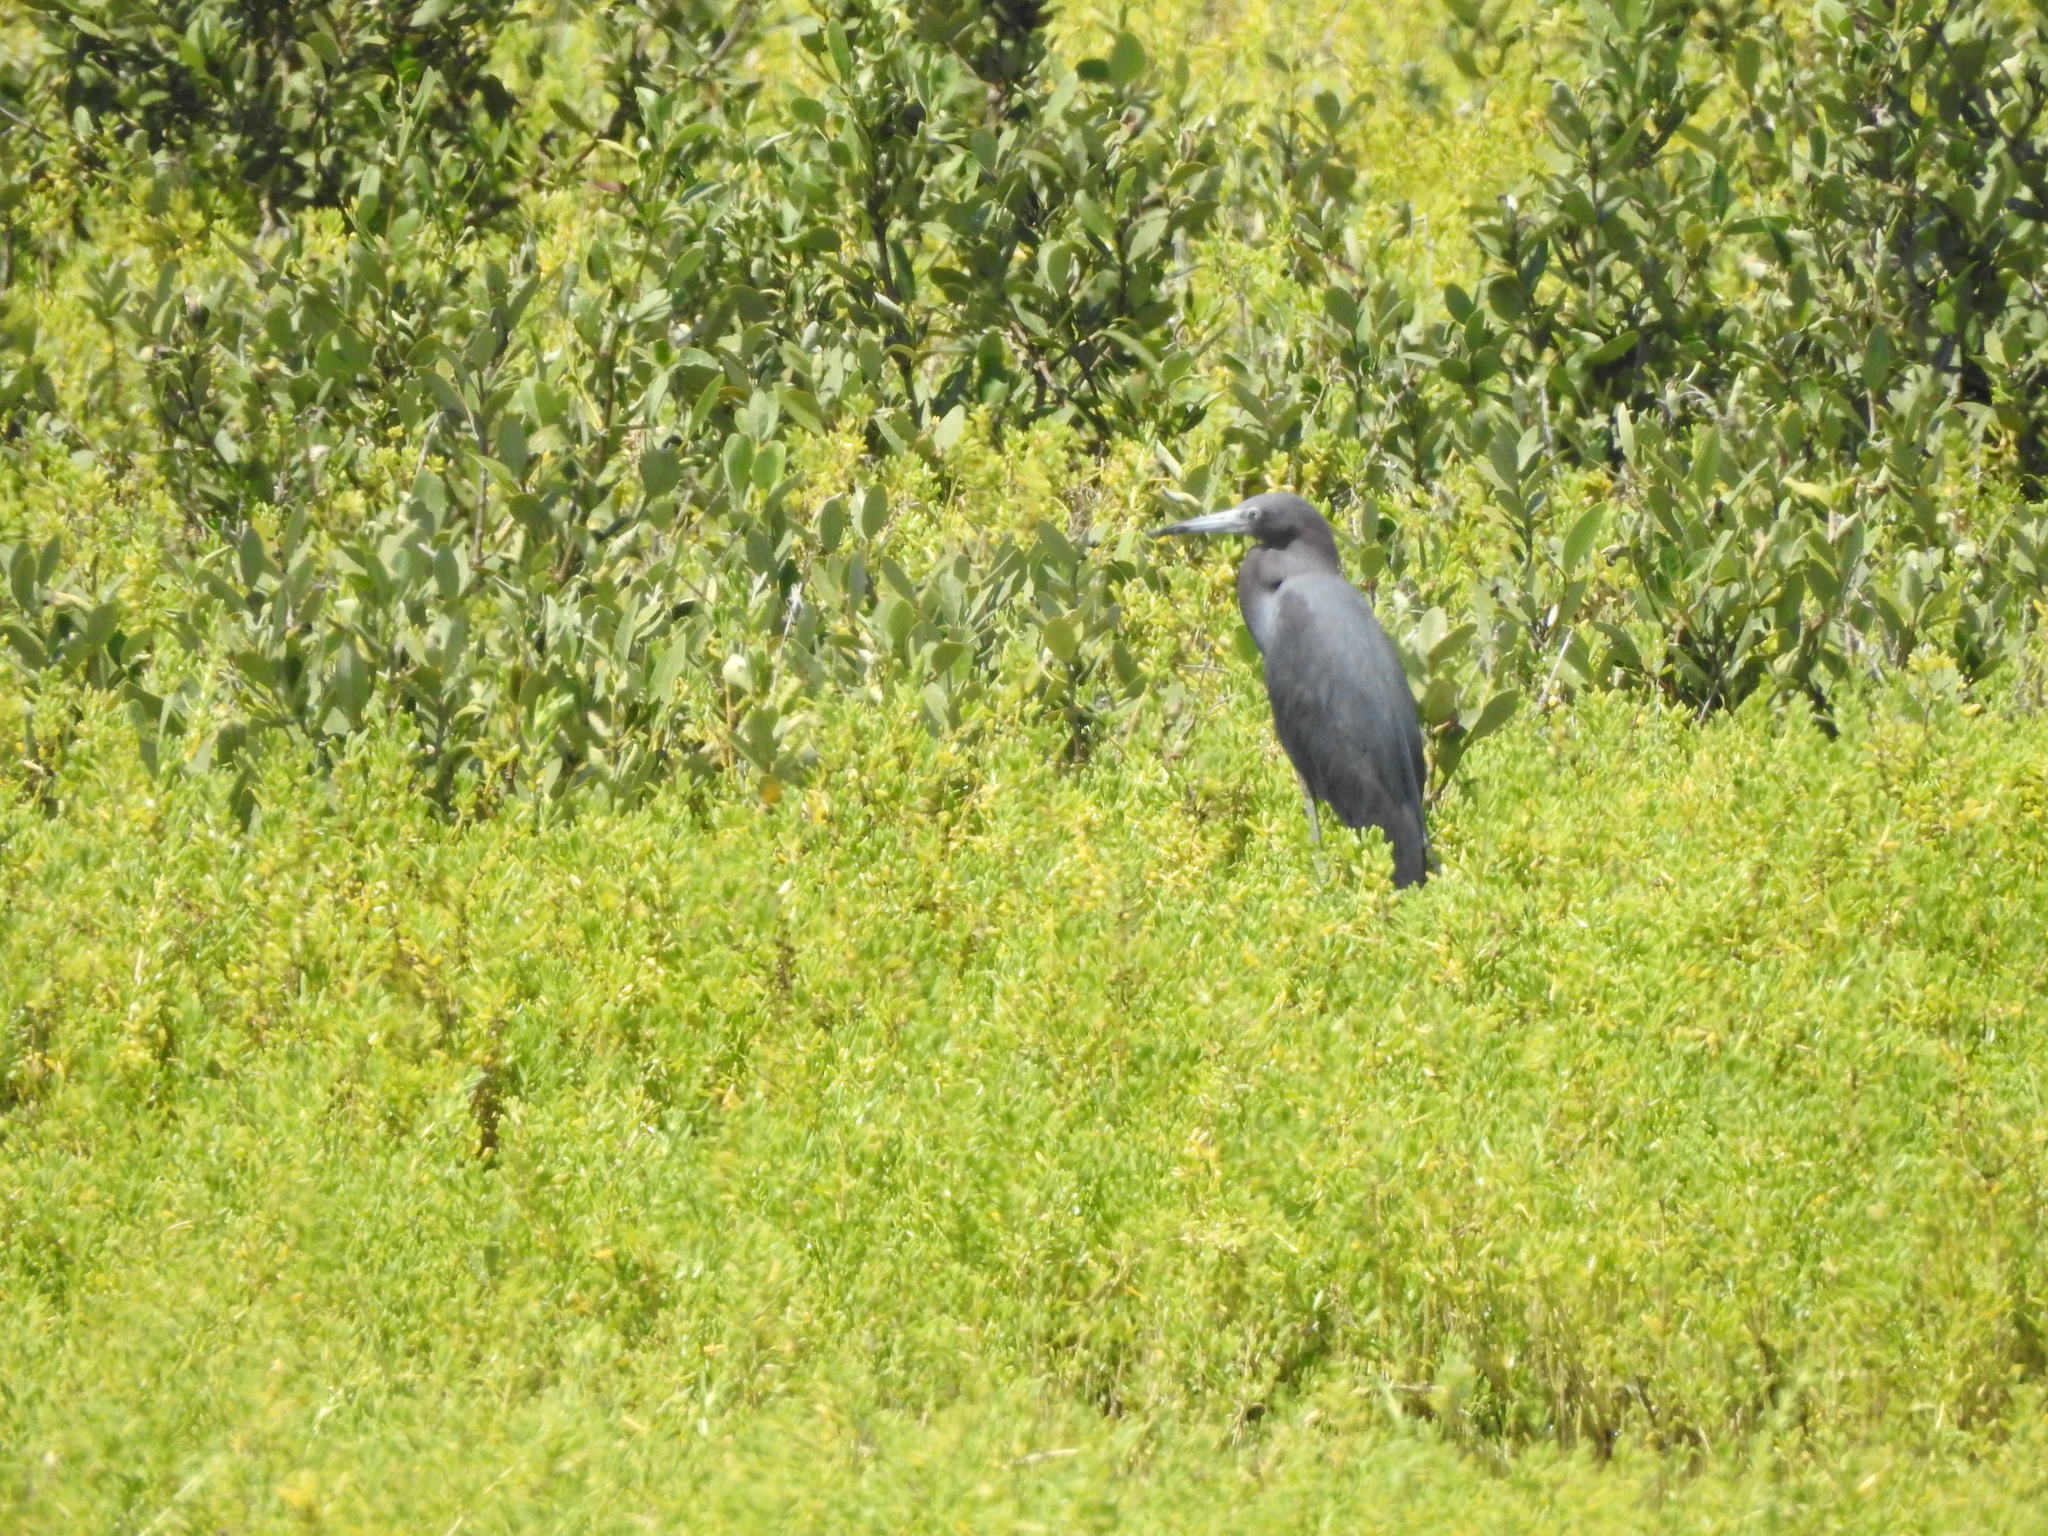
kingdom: Animalia
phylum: Chordata
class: Aves
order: Pelecaniformes
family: Ardeidae
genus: Egretta
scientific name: Egretta caerulea
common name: Little blue heron
